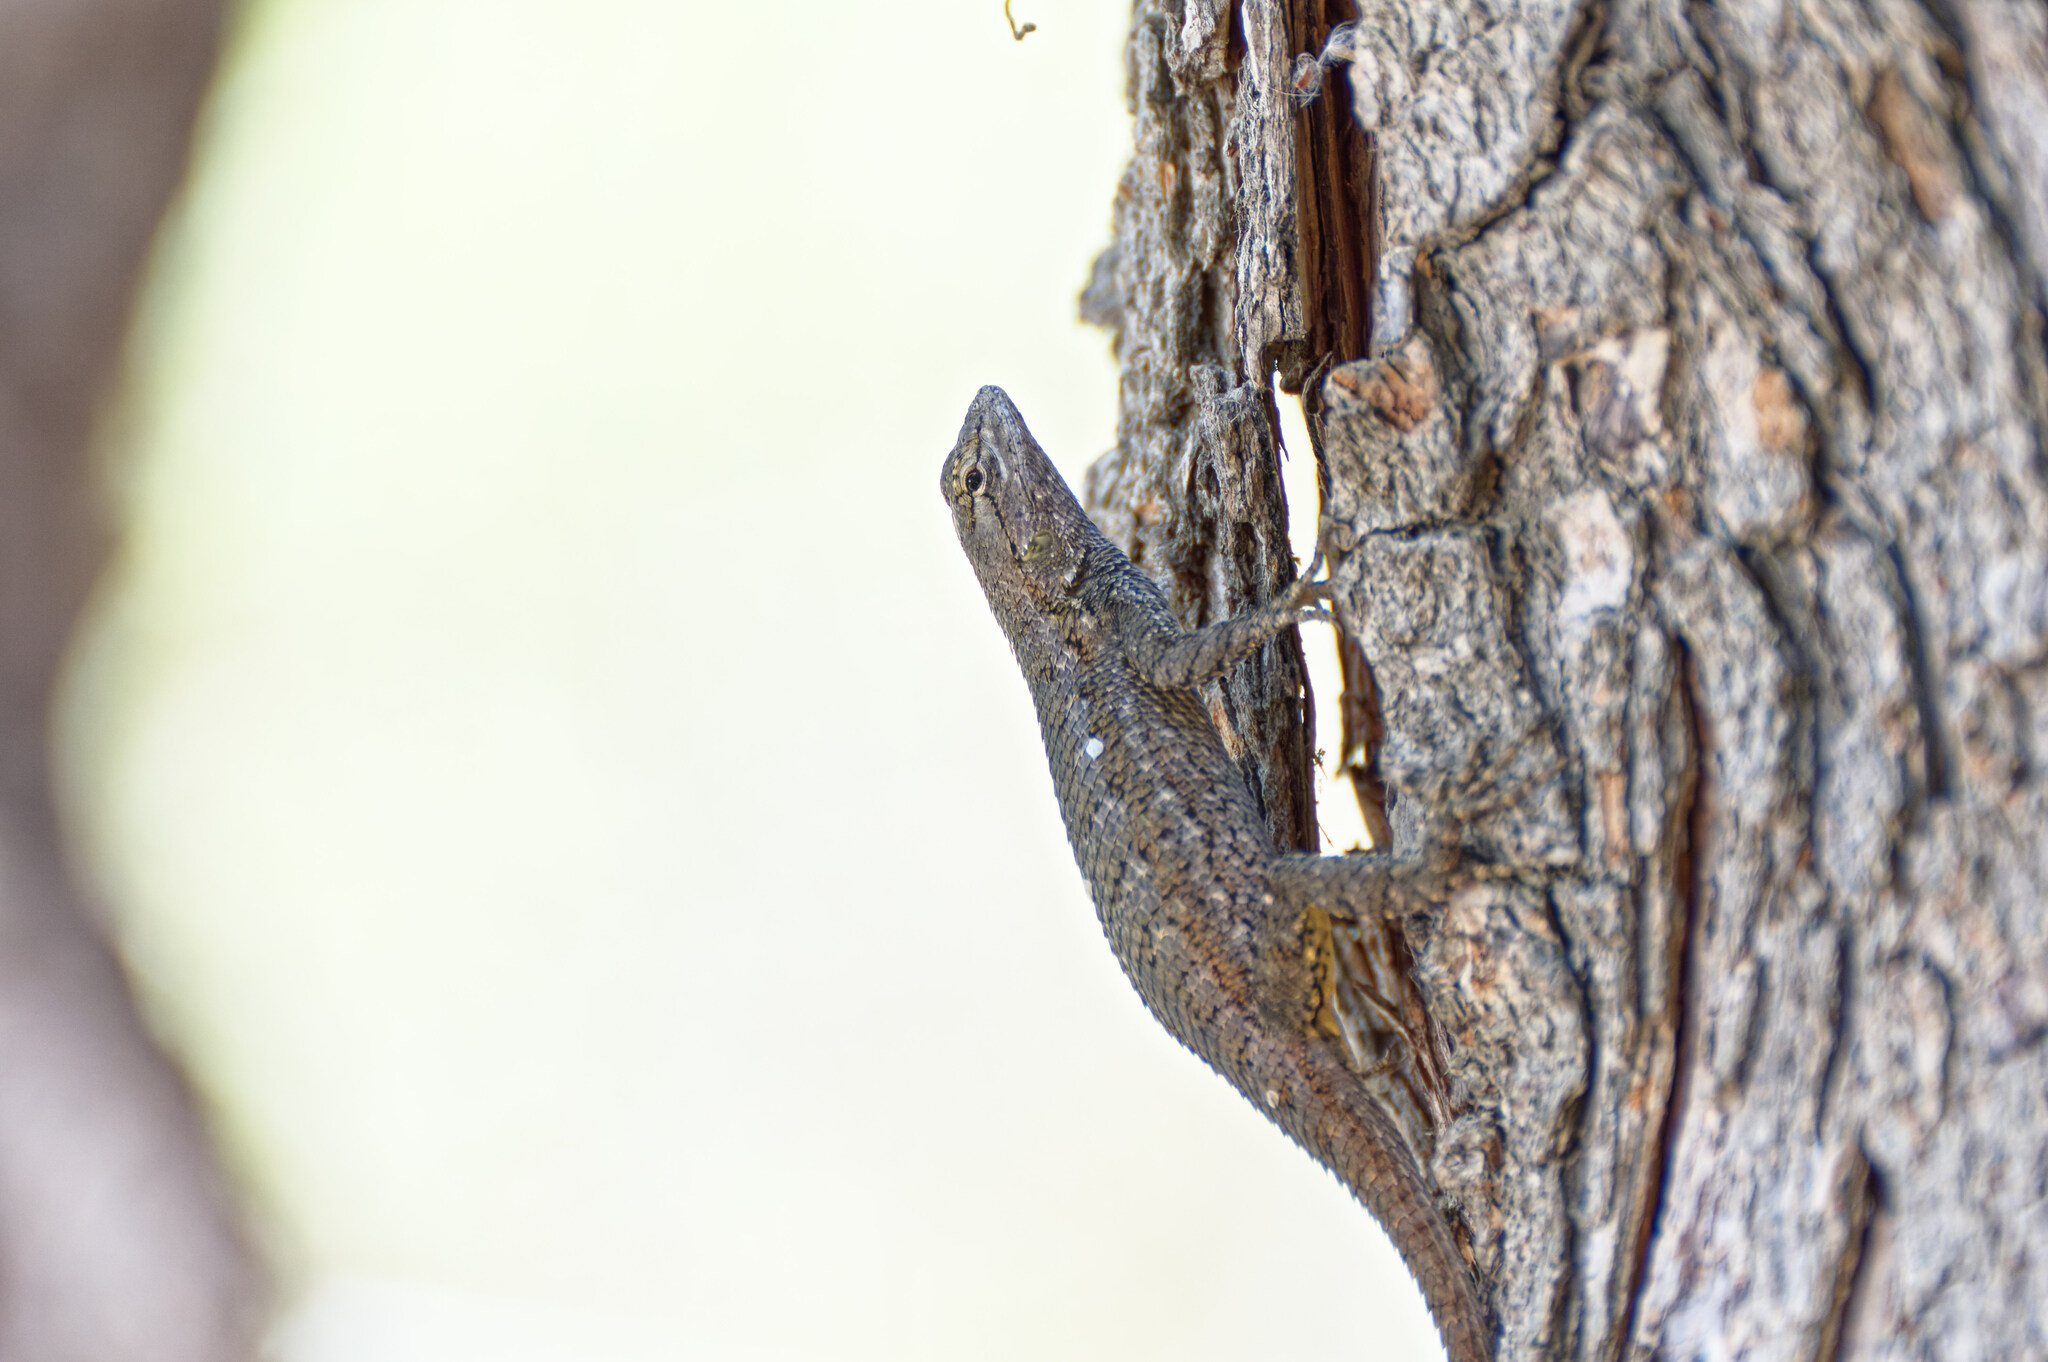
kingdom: Animalia
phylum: Chordata
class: Squamata
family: Phrynosomatidae
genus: Sceloporus
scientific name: Sceloporus occidentalis
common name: Western fence lizard
